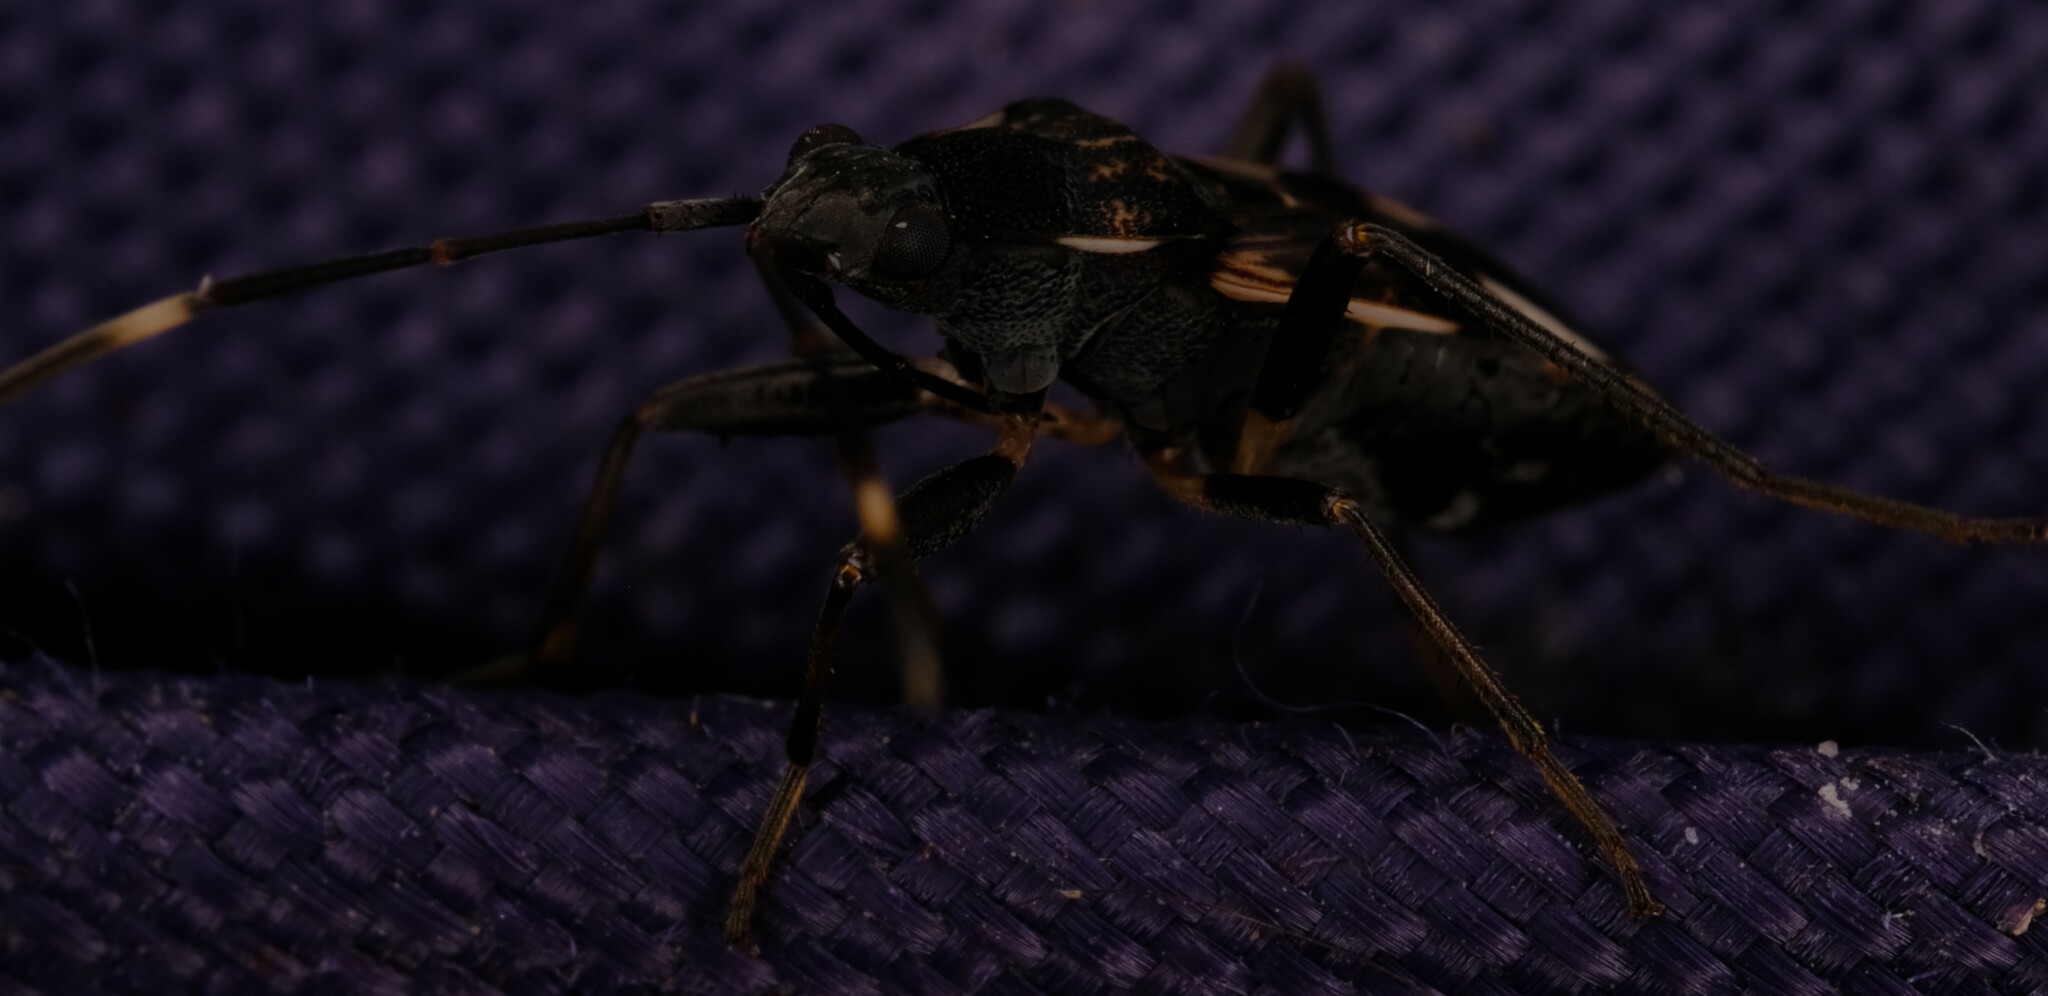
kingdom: Animalia
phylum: Arthropoda
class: Insecta
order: Hemiptera
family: Rhyparochromidae
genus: Dieuches
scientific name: Dieuches notatus
